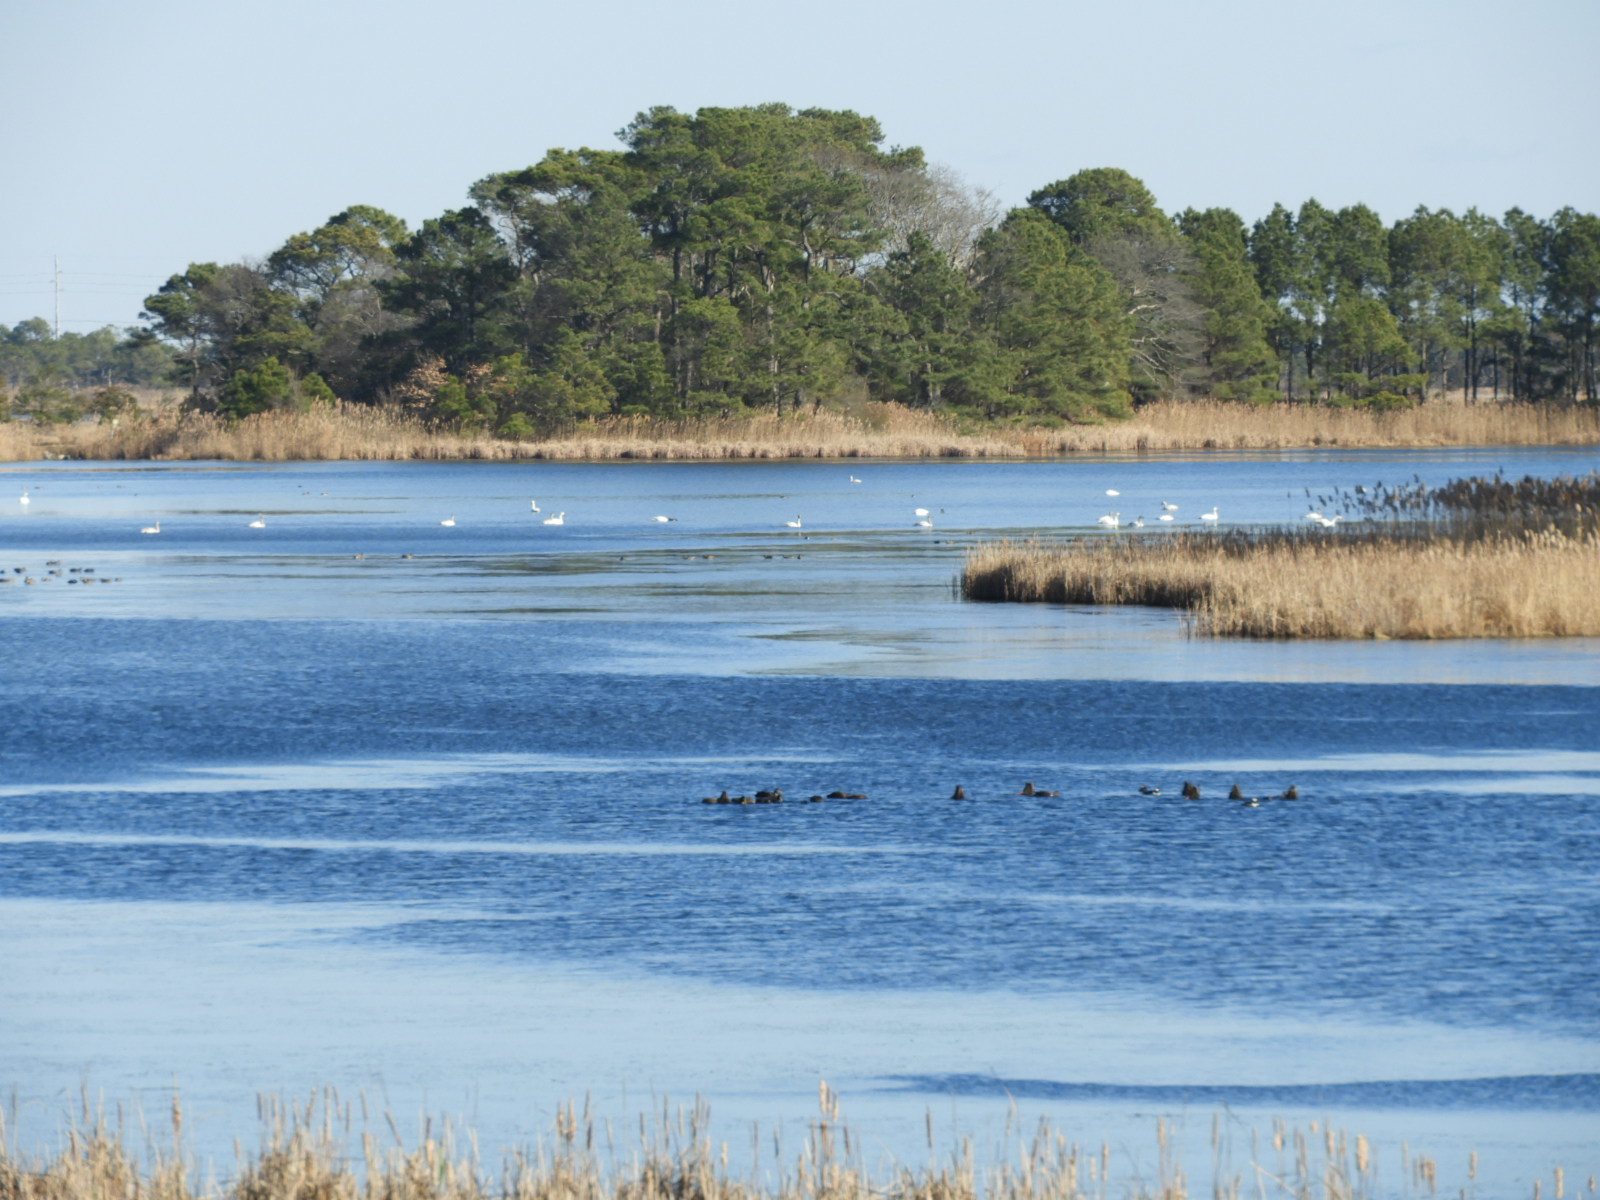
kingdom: Animalia
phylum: Chordata
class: Aves
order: Gruiformes
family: Rallidae
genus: Fulica
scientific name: Fulica americana
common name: American coot
